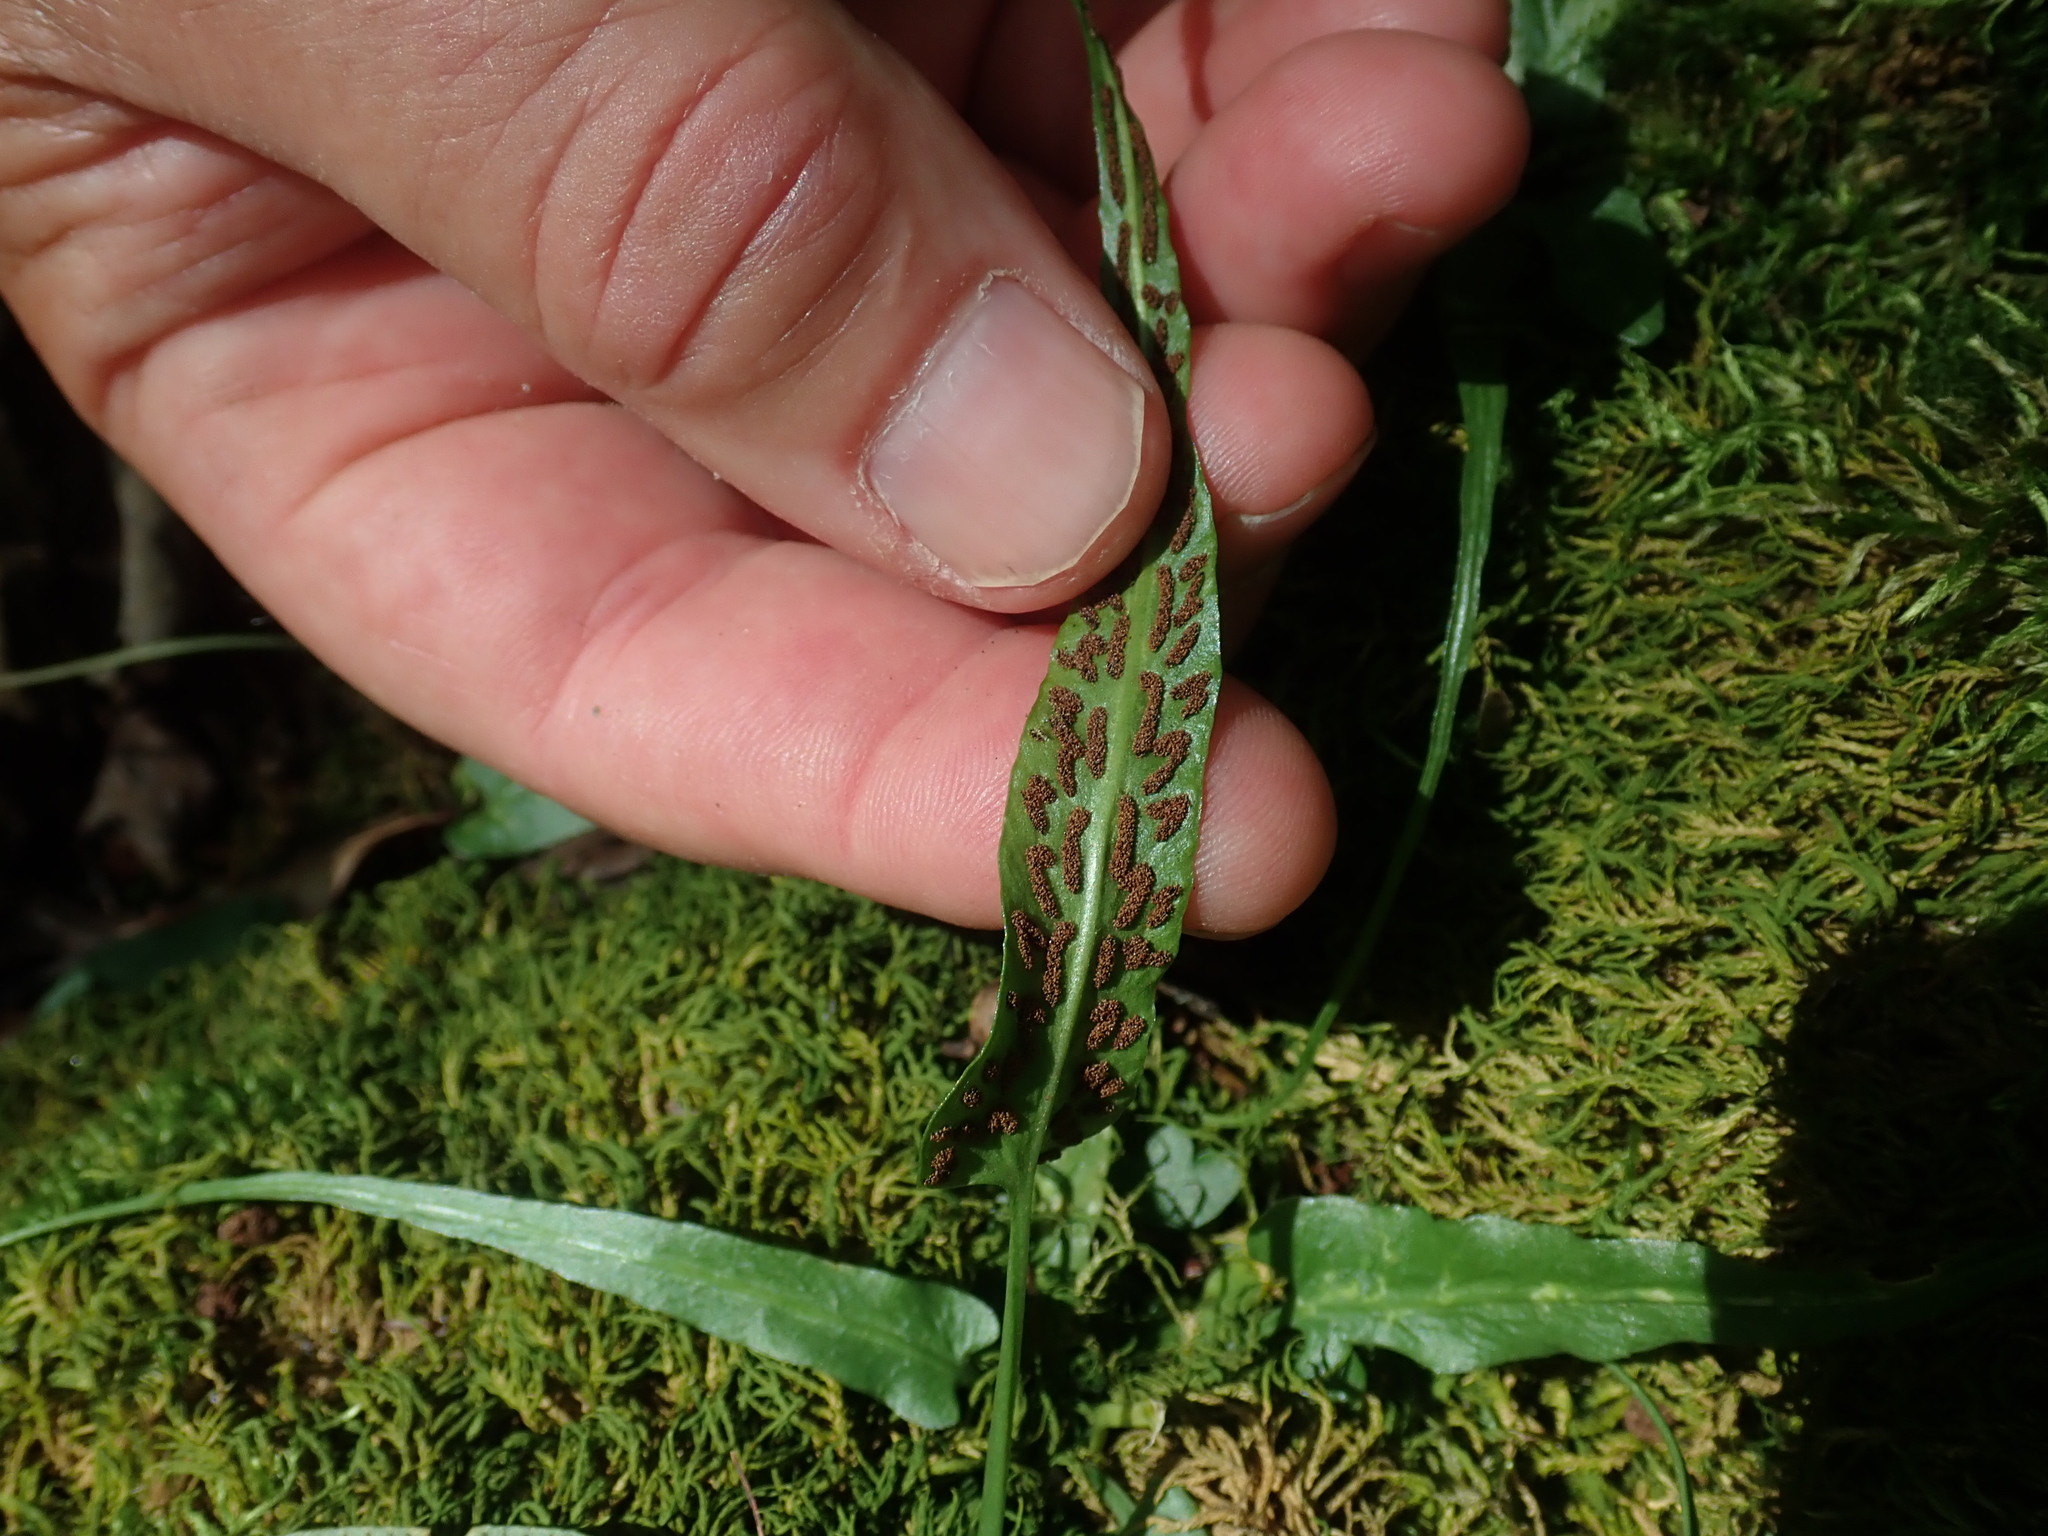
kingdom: Plantae
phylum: Tracheophyta
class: Polypodiopsida
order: Polypodiales
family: Aspleniaceae
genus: Asplenium
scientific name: Asplenium rhizophyllum
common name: Walking fern
